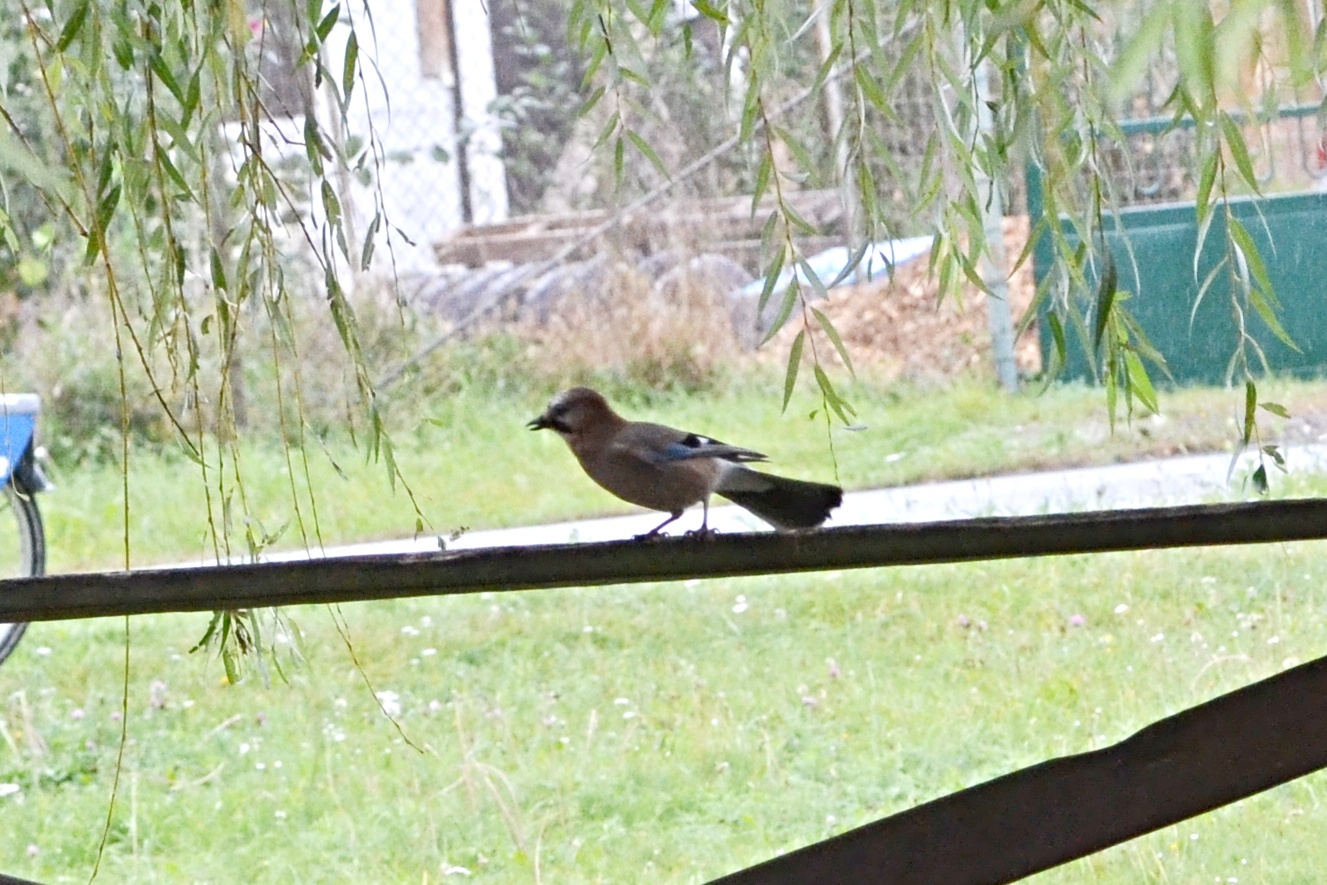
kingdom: Animalia
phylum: Chordata
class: Aves
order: Passeriformes
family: Corvidae
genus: Garrulus
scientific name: Garrulus glandarius
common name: Eurasian jay
